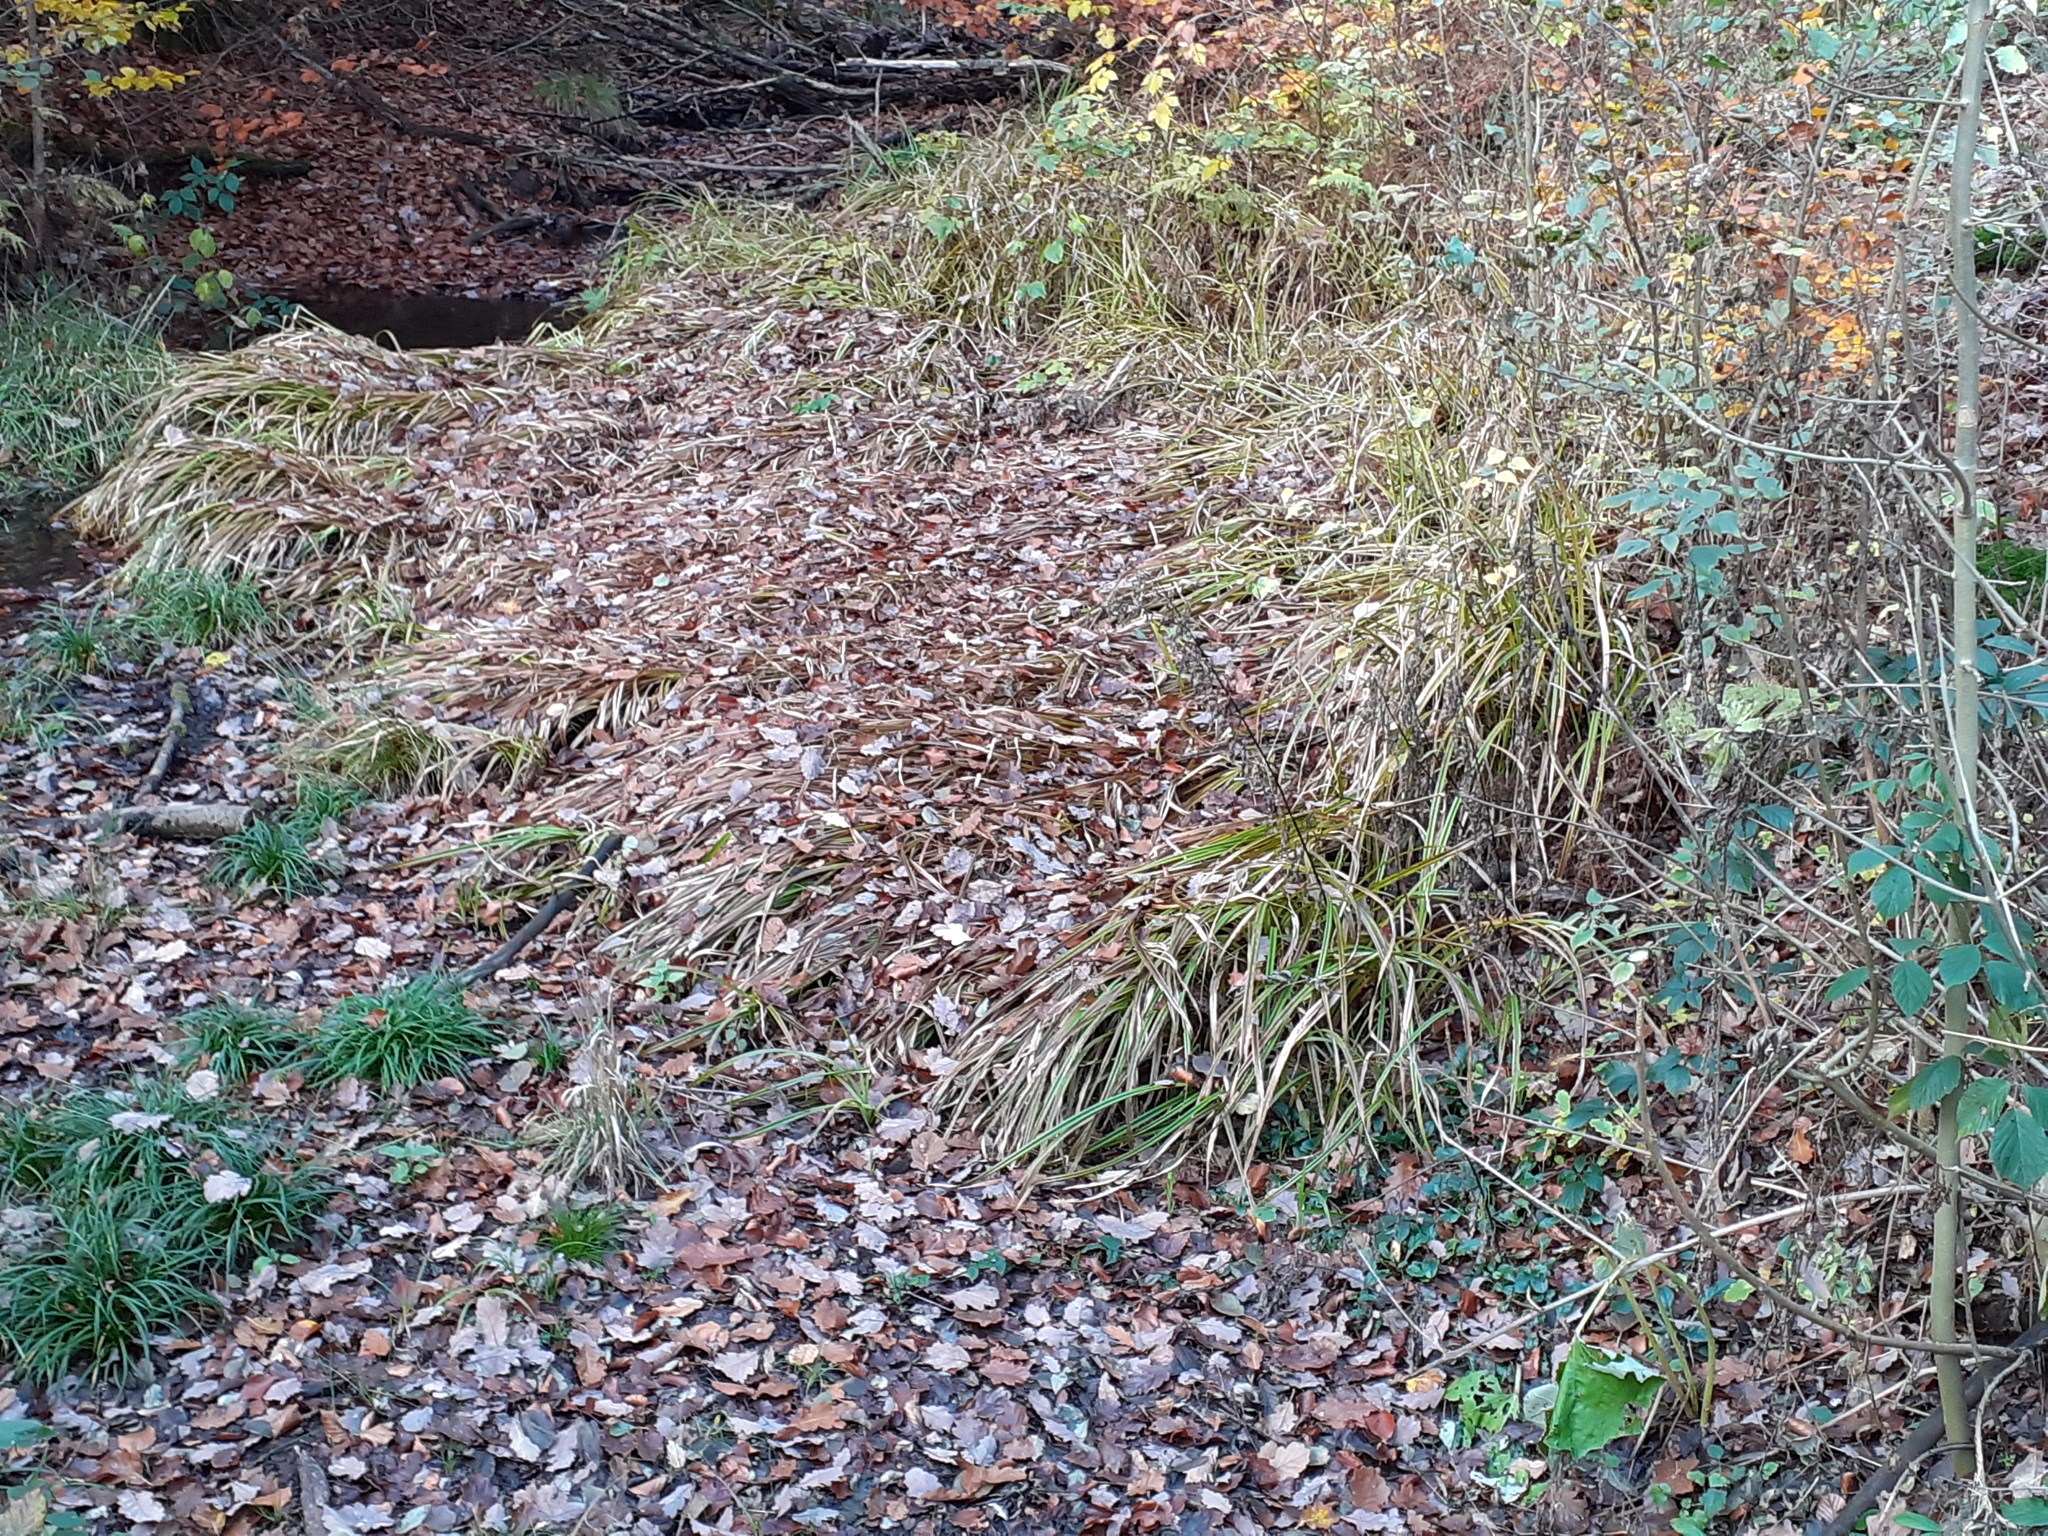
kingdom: Plantae
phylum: Tracheophyta
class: Liliopsida
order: Poales
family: Cyperaceae
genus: Scirpus
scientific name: Scirpus sylvaticus
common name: Wood club-rush
